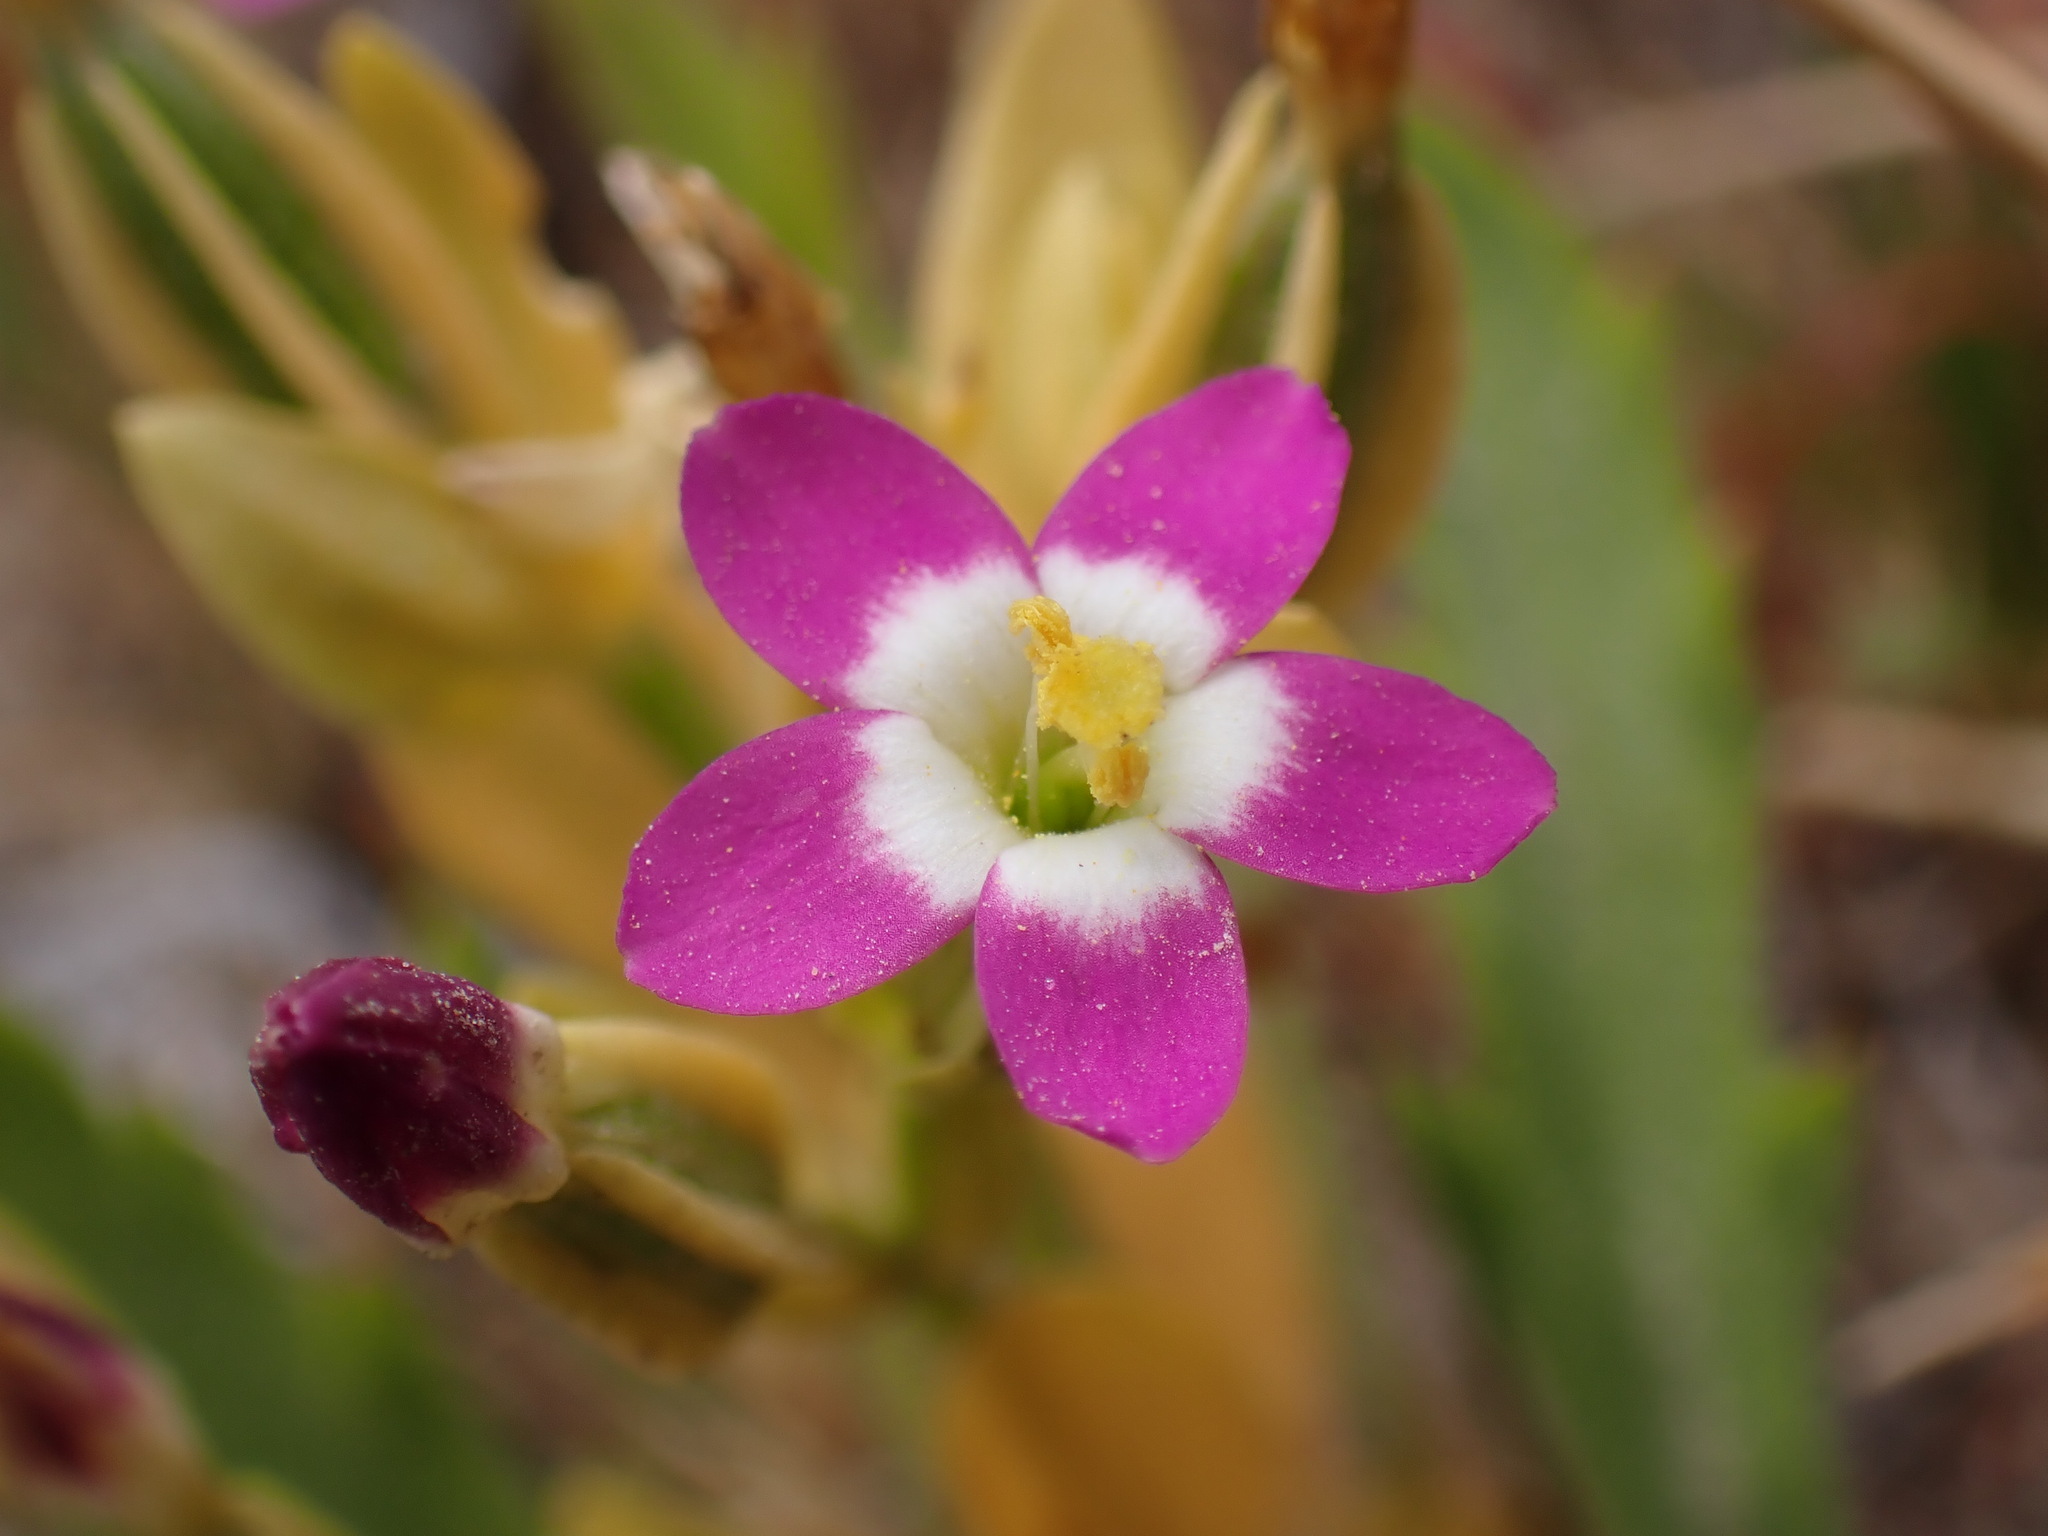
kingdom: Plantae
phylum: Tracheophyta
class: Magnoliopsida
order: Gentianales
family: Gentianaceae
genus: Zeltnera
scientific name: Zeltnera davyi
